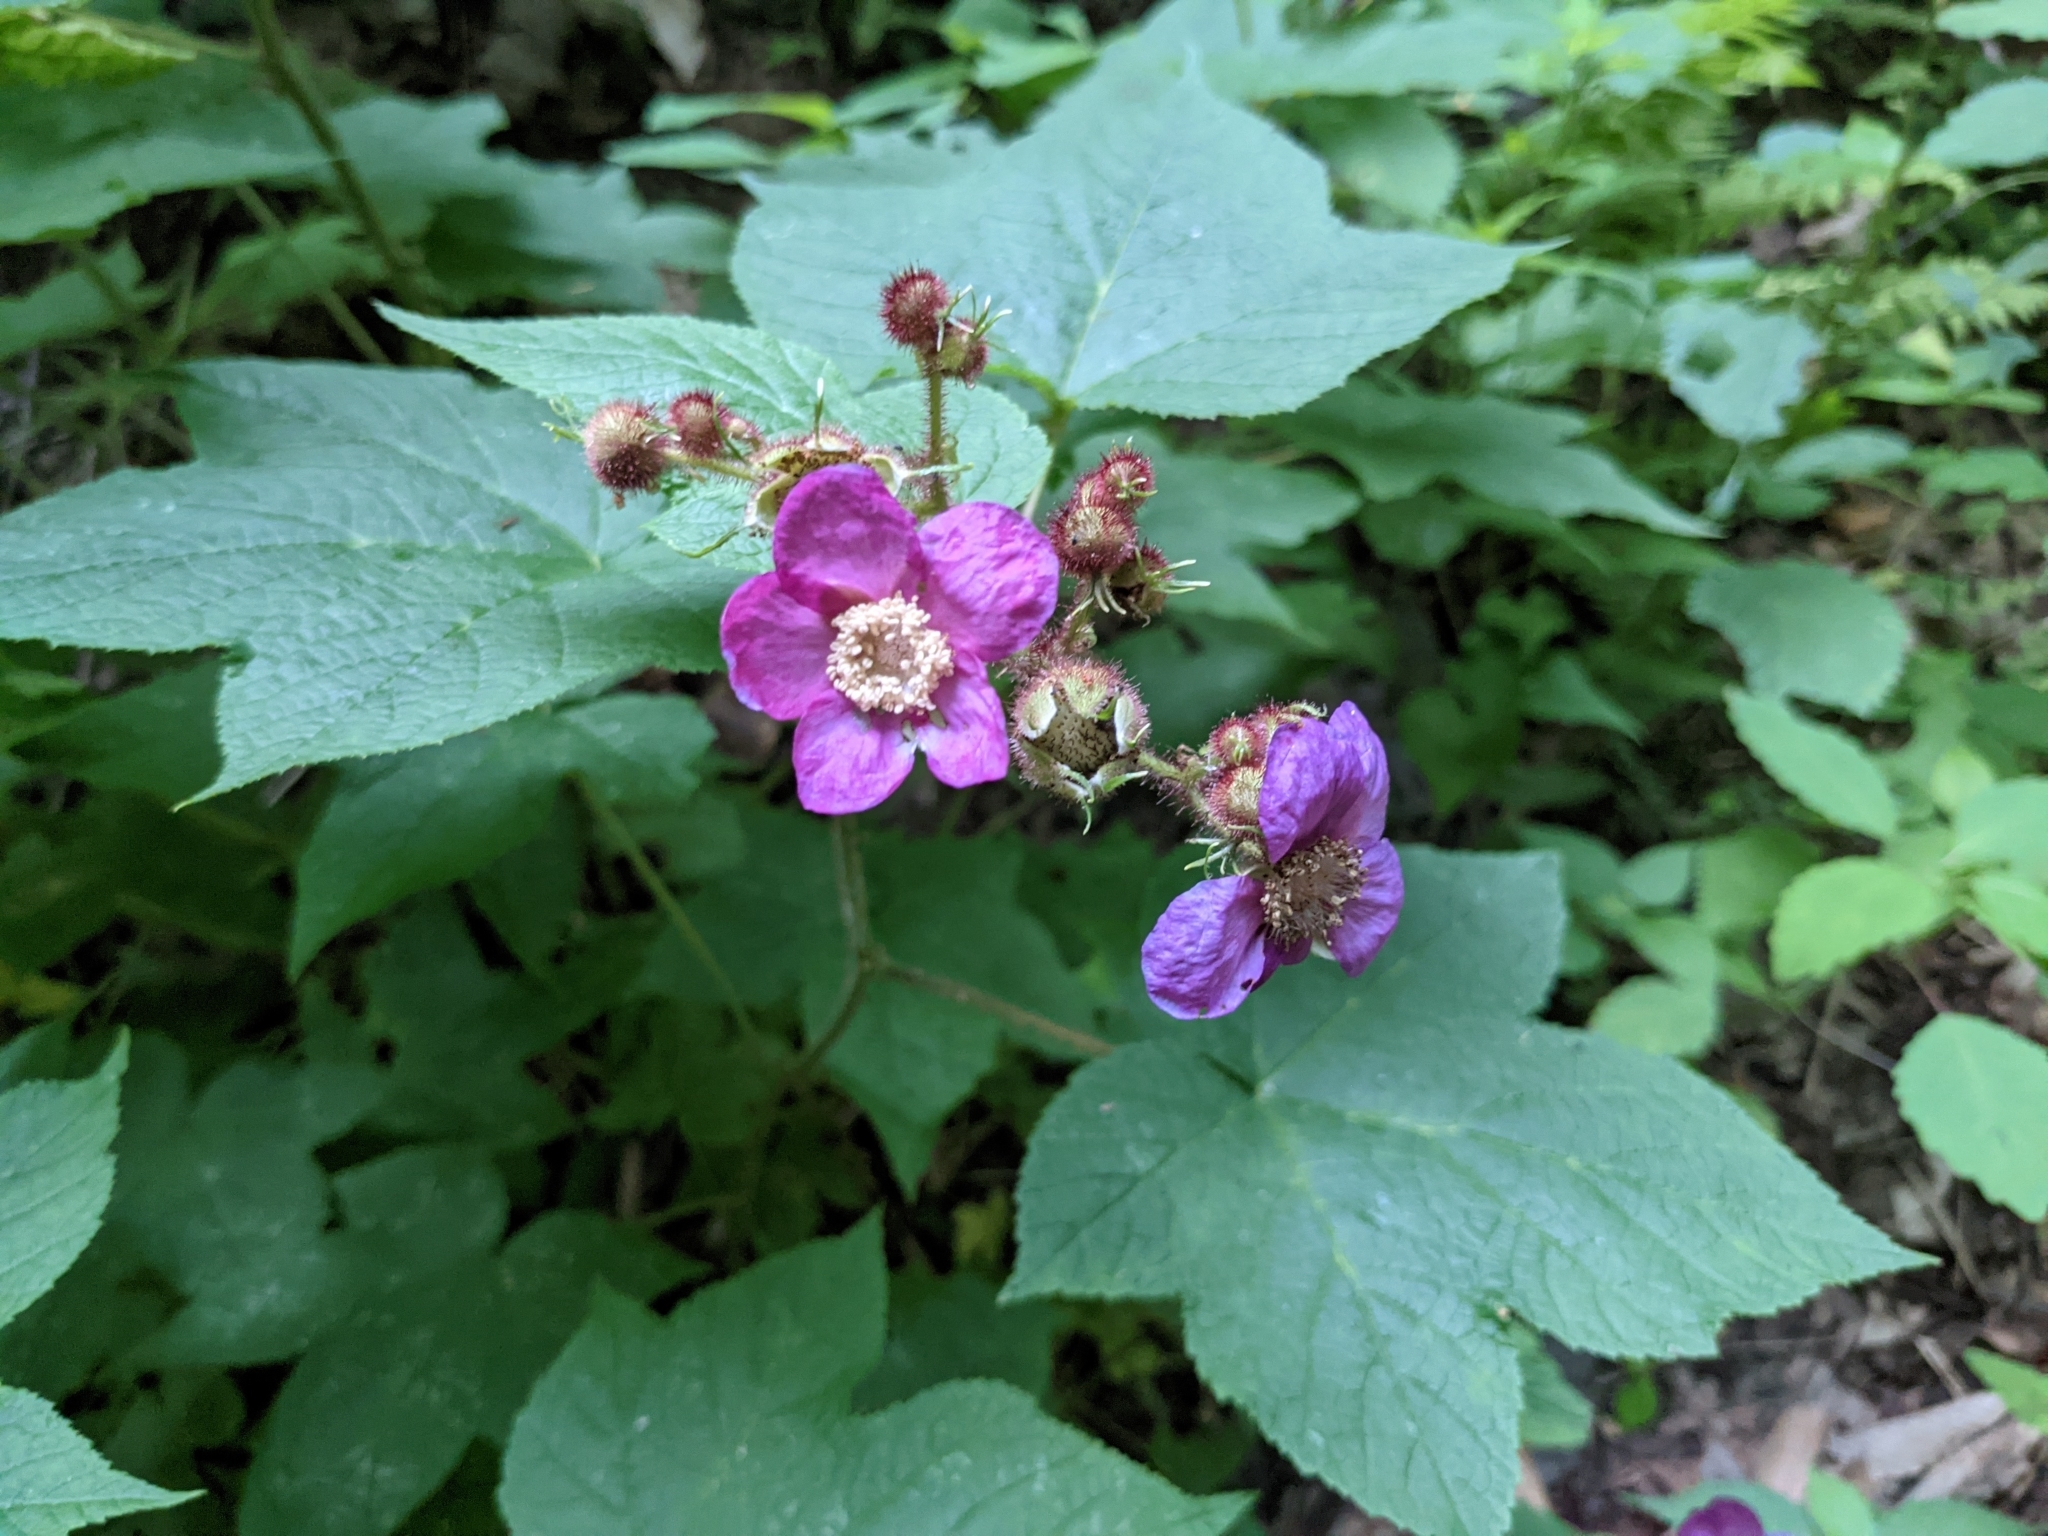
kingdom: Plantae
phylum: Tracheophyta
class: Magnoliopsida
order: Rosales
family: Rosaceae
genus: Rubus
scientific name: Rubus odoratus
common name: Purple-flowered raspberry
